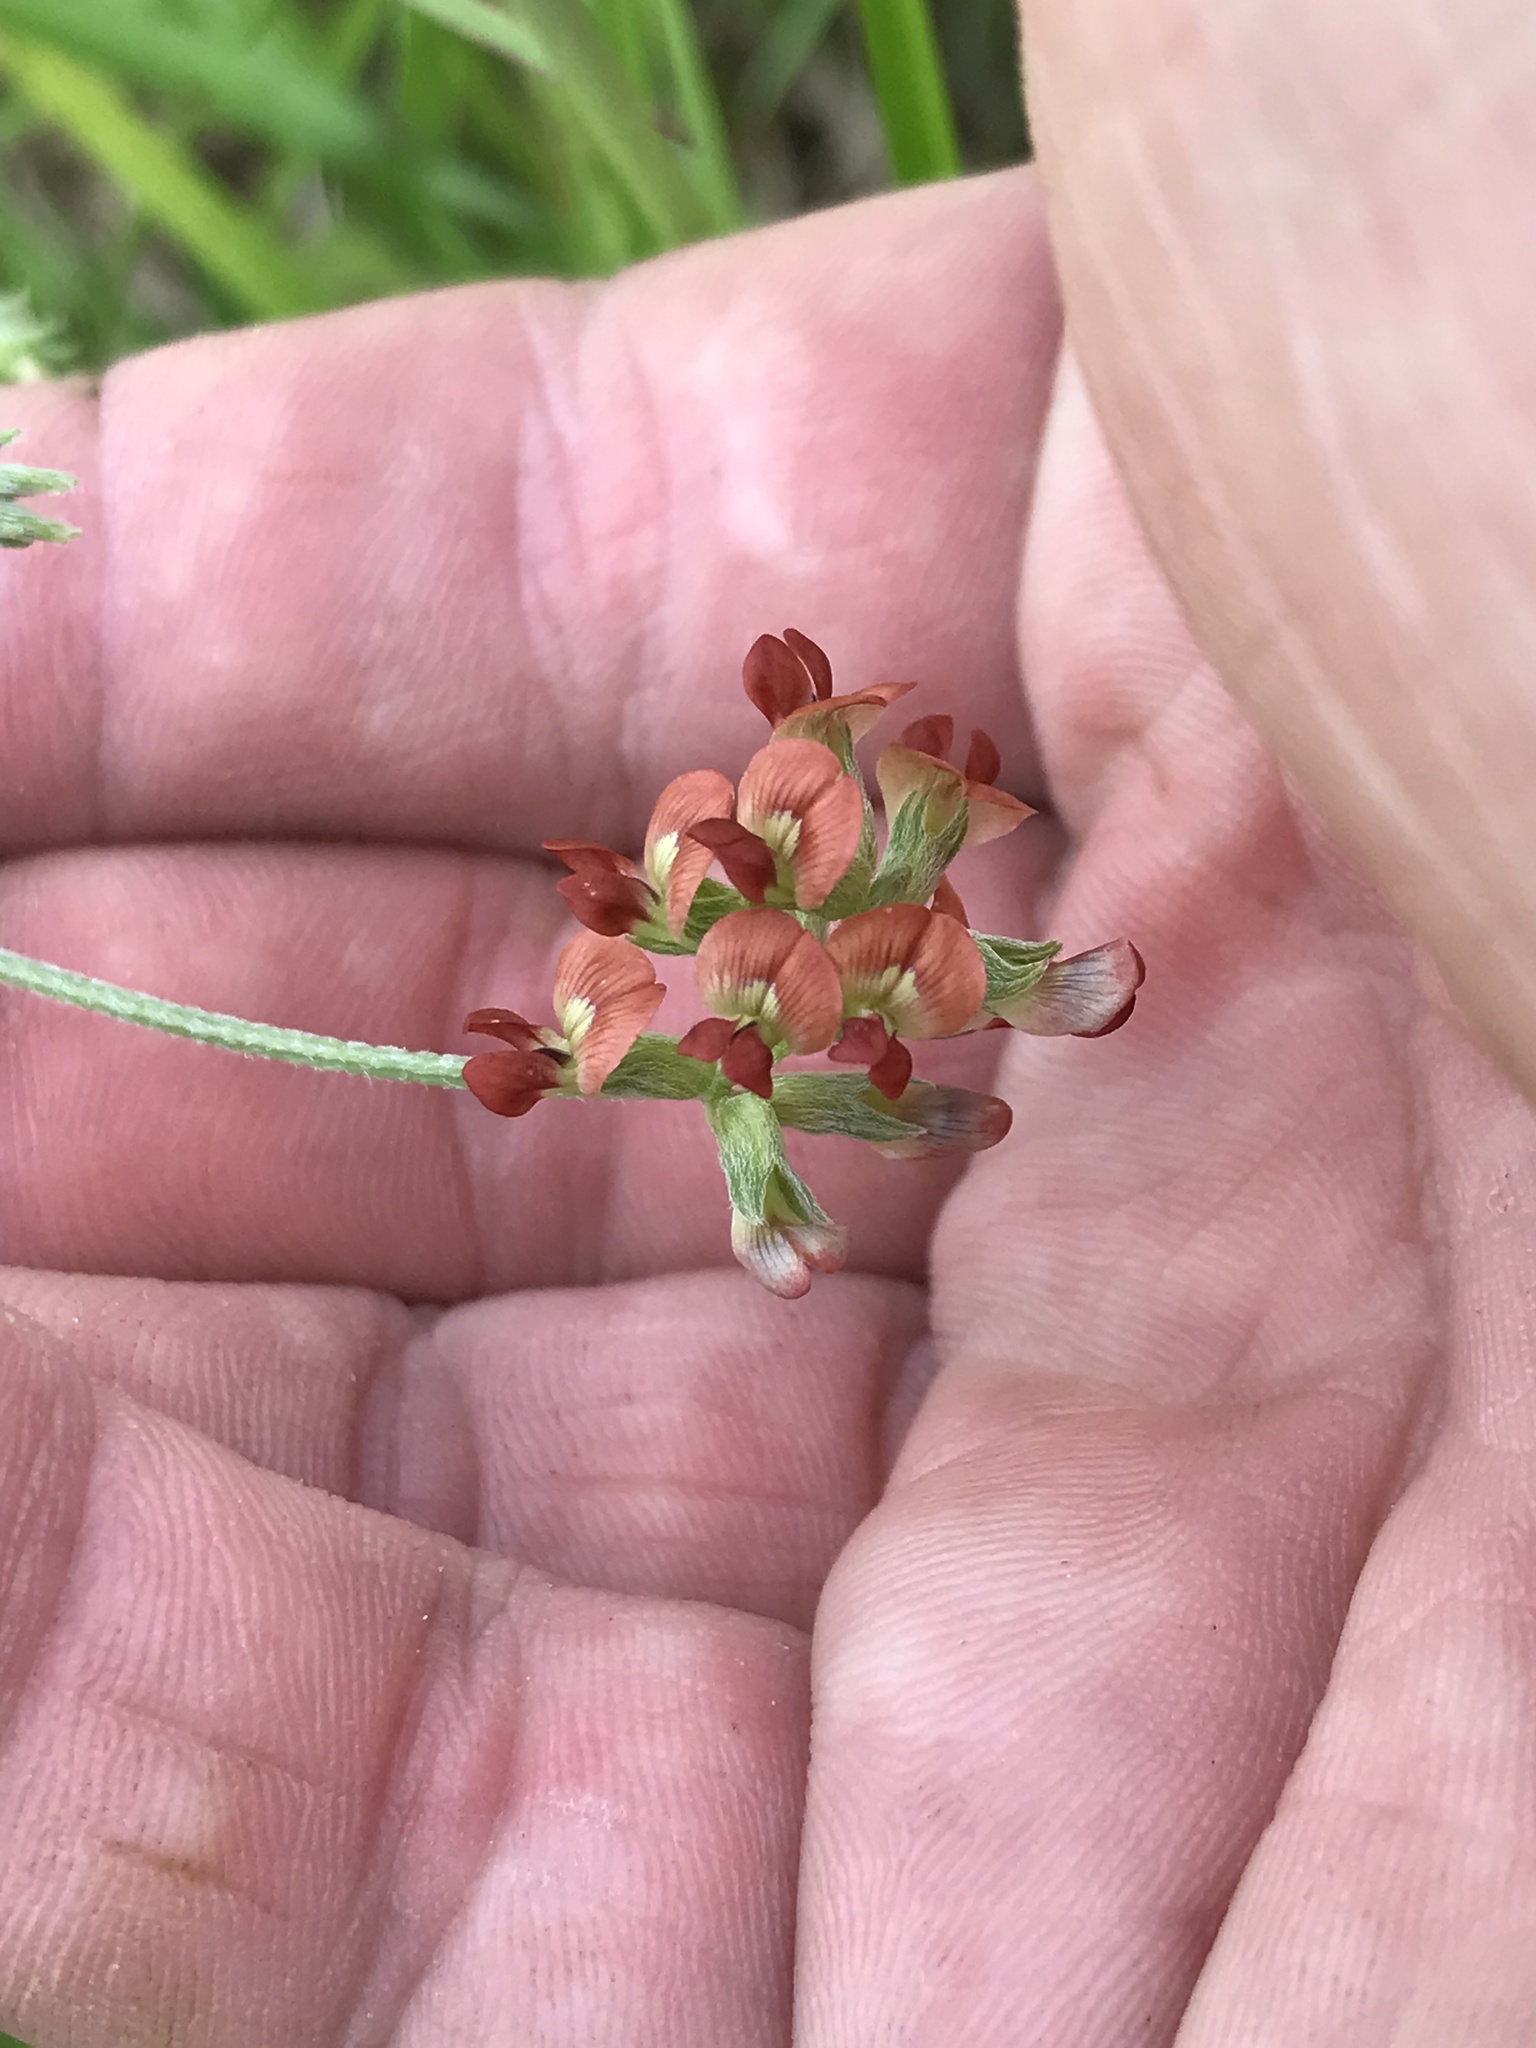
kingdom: Plantae
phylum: Tracheophyta
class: Magnoliopsida
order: Fabales
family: Fabaceae
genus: Pediomelum
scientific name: Pediomelum rhombifolium
